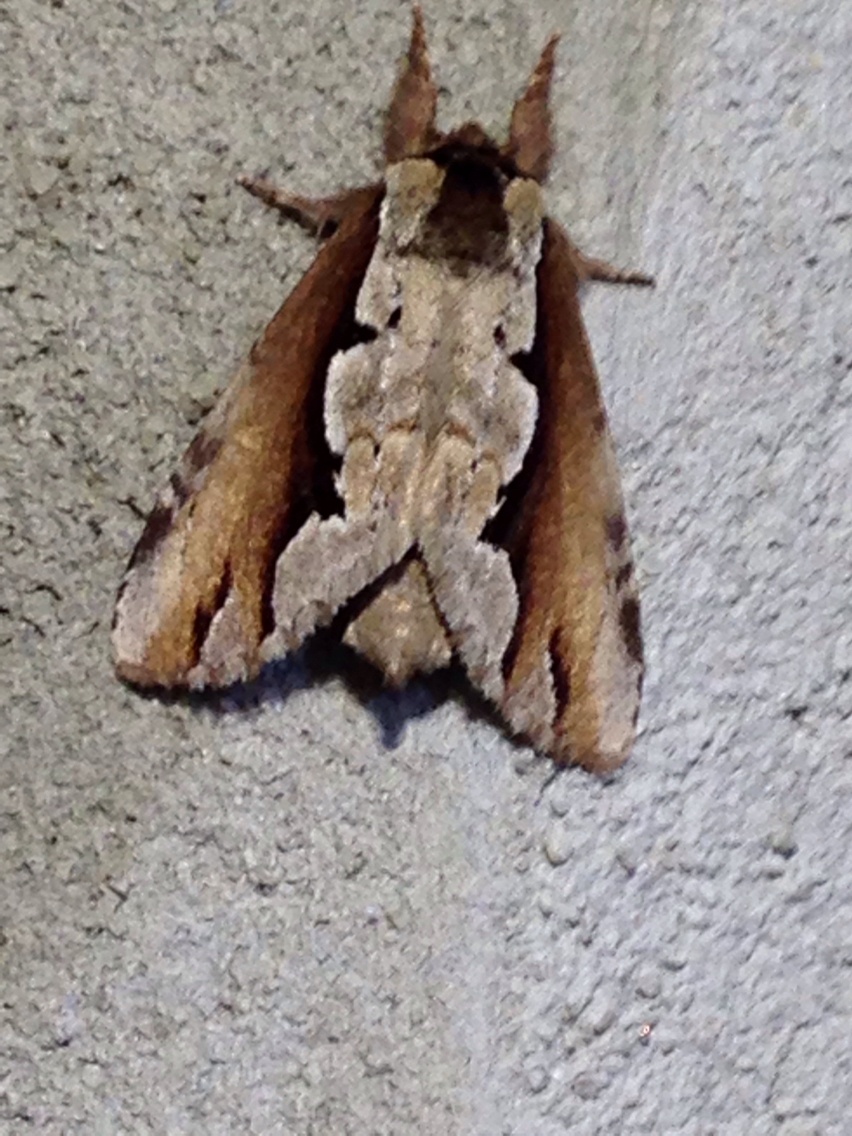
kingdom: Animalia
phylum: Arthropoda
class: Insecta
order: Lepidoptera
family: Notodontidae
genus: Nerice
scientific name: Nerice bidentata
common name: Double-toothed prominent
